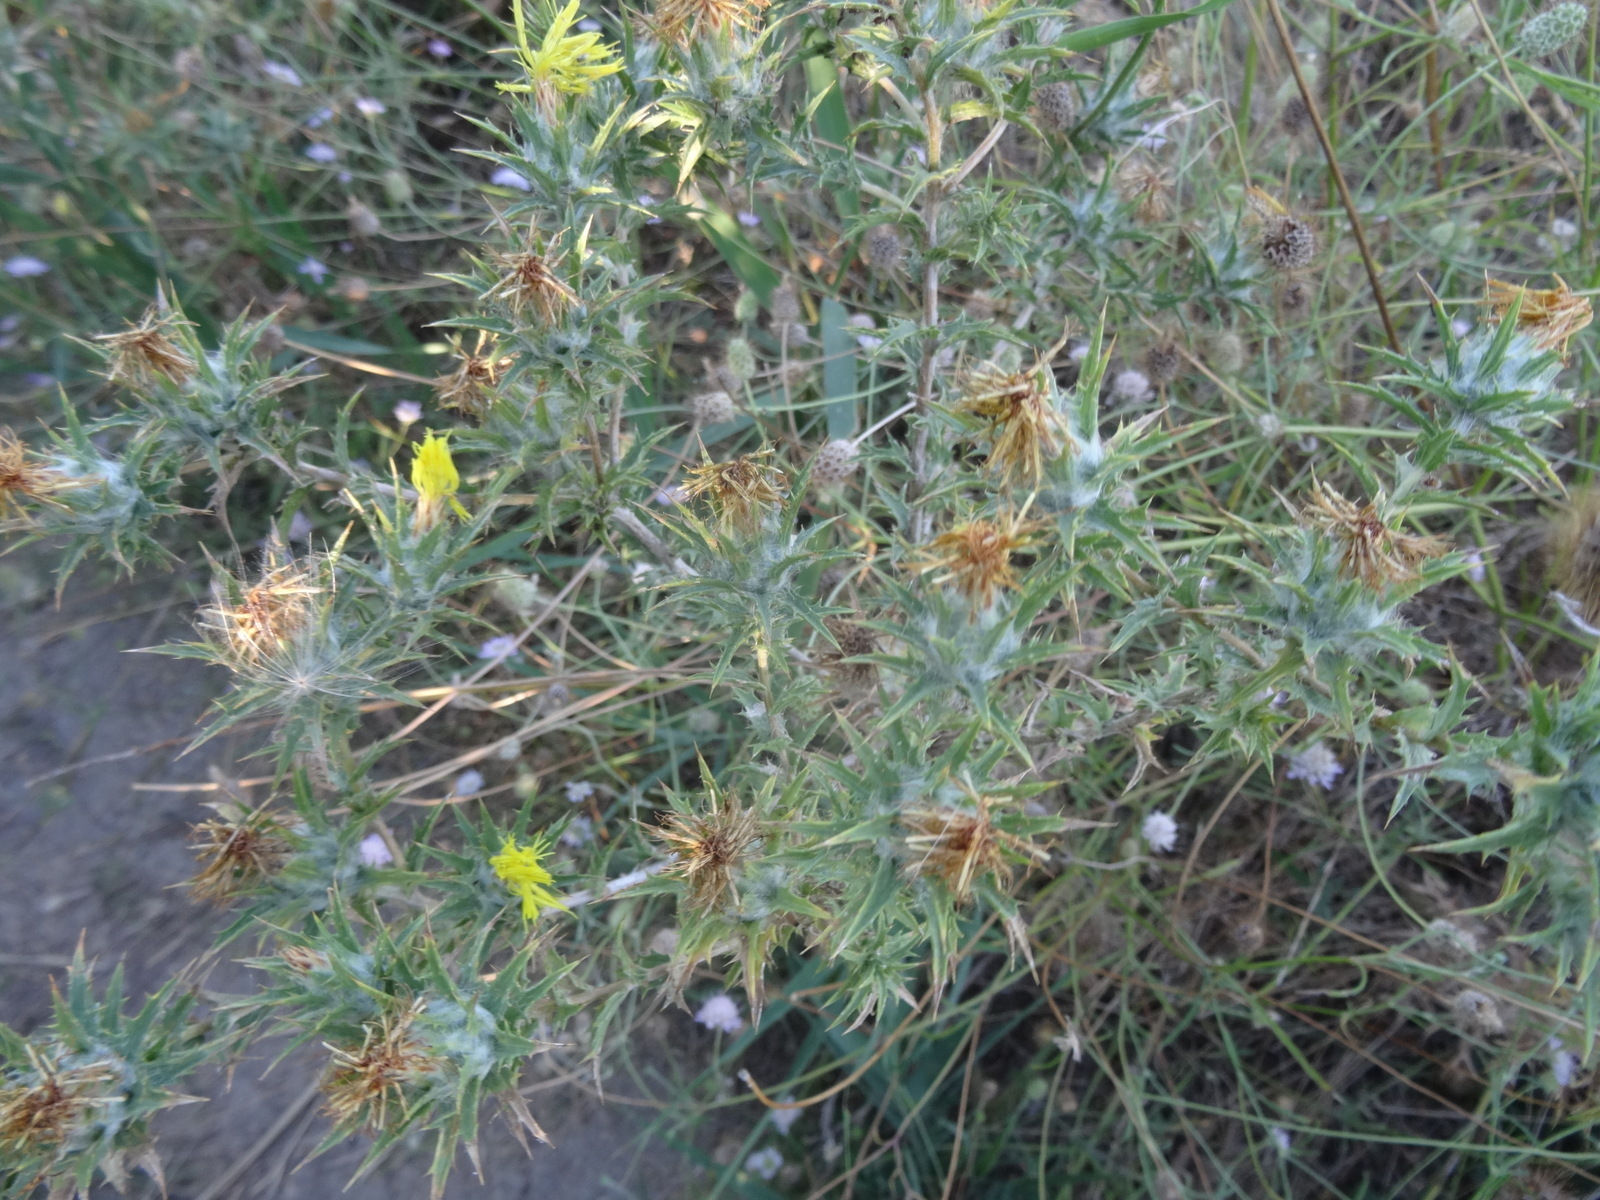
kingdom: Plantae
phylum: Tracheophyta
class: Magnoliopsida
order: Asterales
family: Asteraceae
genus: Carthamus
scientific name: Carthamus lanatus
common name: Downy safflower
